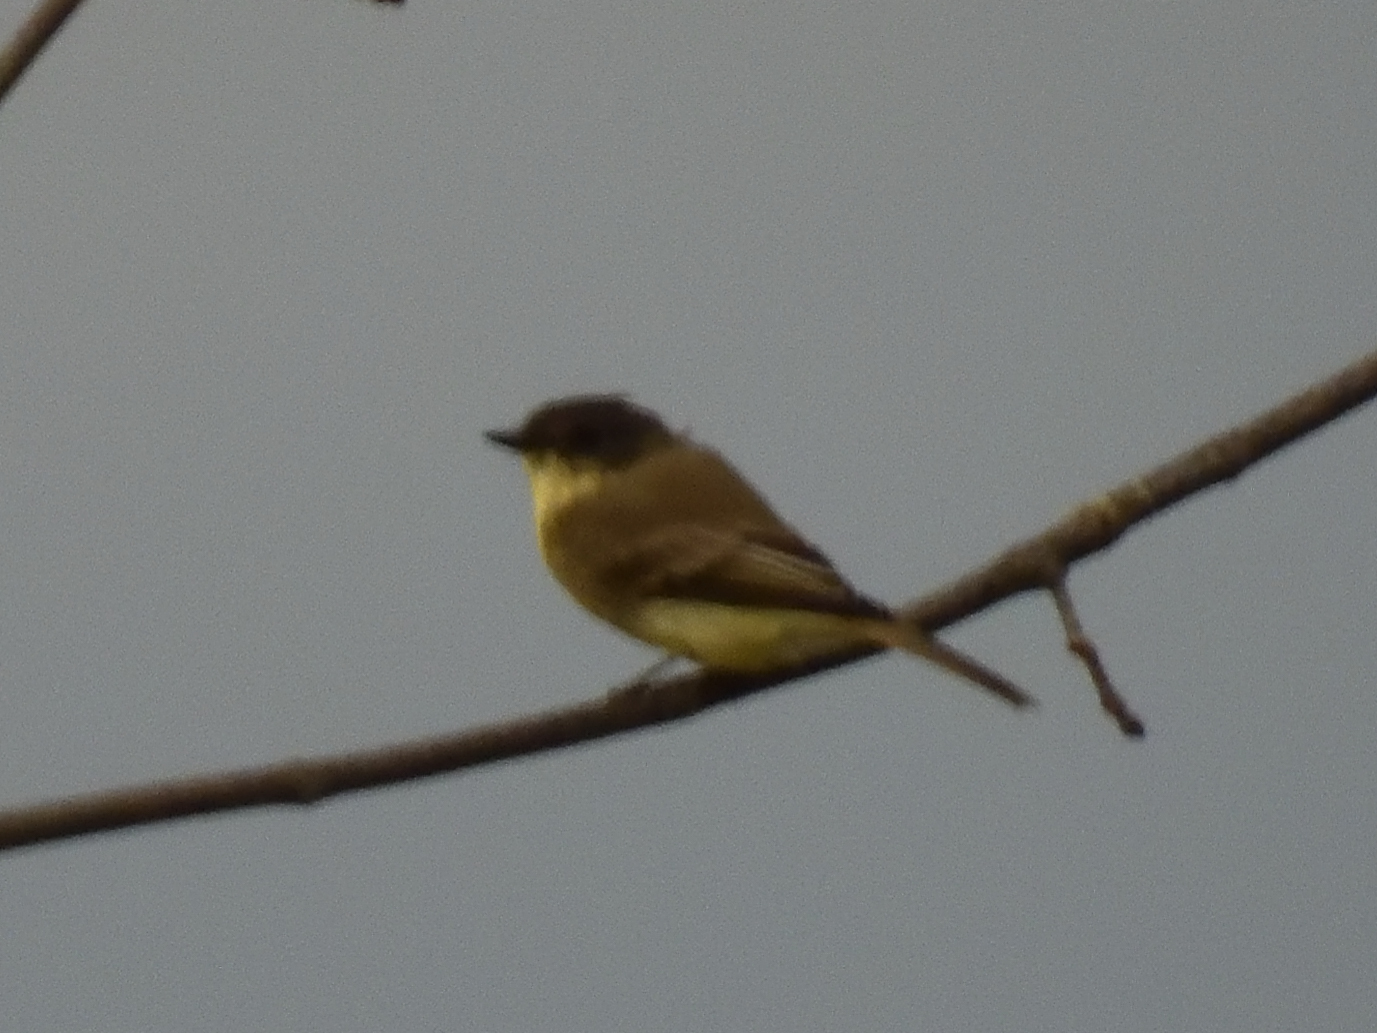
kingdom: Animalia
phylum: Chordata
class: Aves
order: Passeriformes
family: Tyrannidae
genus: Sayornis
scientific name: Sayornis phoebe
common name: Eastern phoebe
